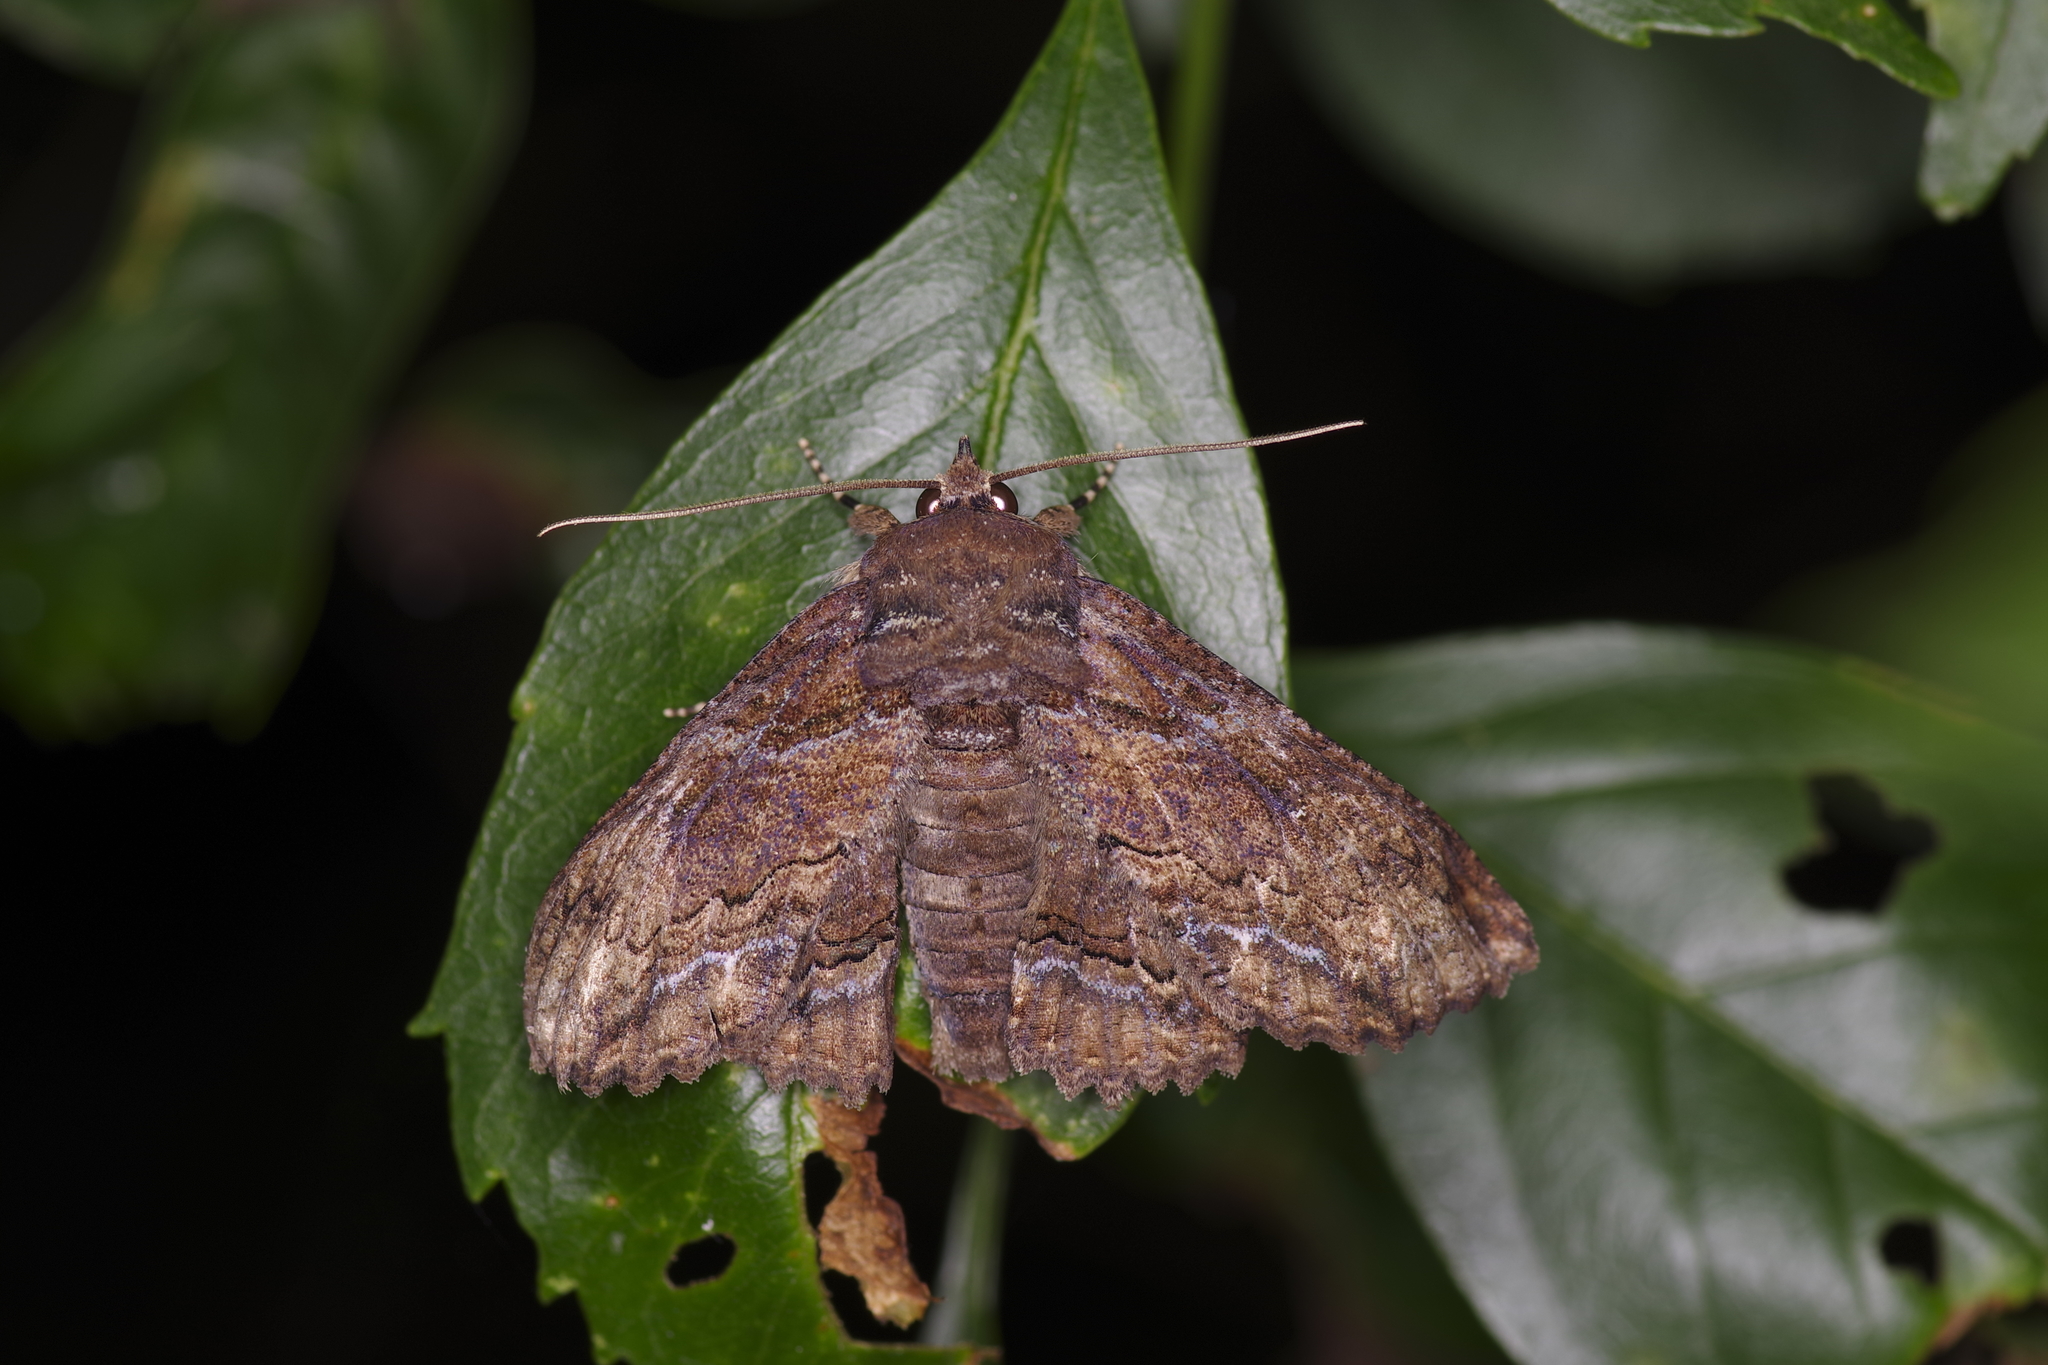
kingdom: Animalia
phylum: Arthropoda
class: Insecta
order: Lepidoptera
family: Erebidae
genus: Zale
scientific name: Zale lunata
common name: Lunate zale moth
